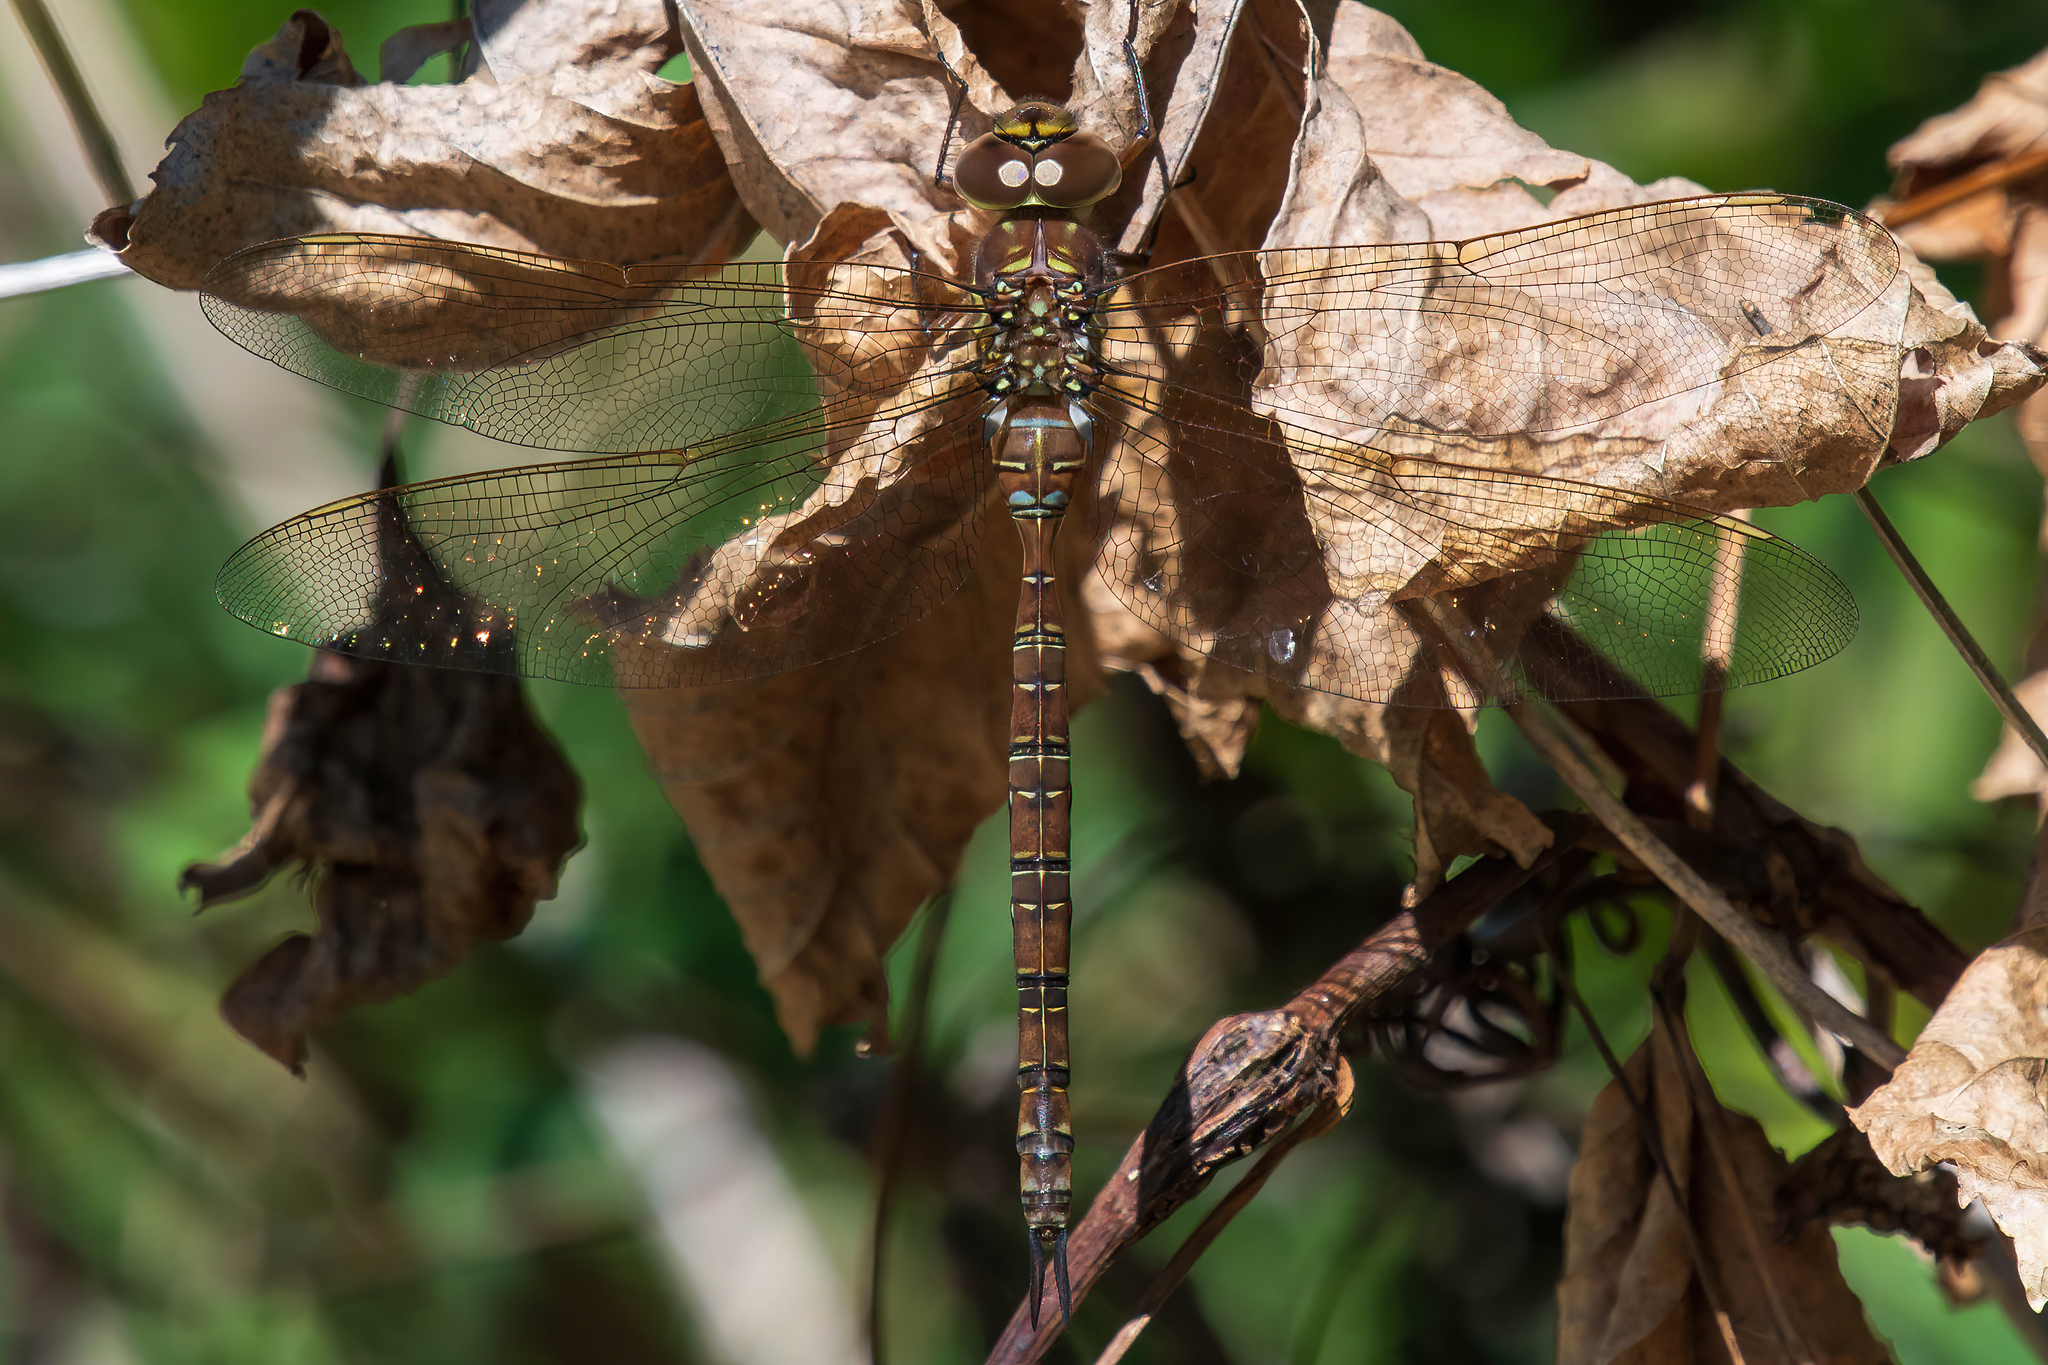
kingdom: Animalia
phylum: Arthropoda
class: Insecta
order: Odonata
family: Aeshnidae
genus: Aeshna
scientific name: Aeshna umbrosa
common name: Shadow darner
